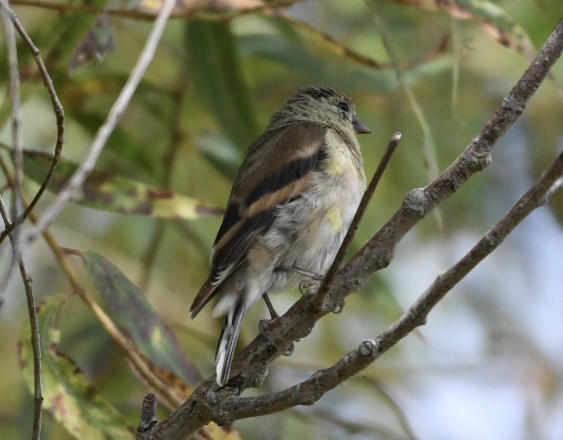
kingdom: Animalia
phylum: Chordata
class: Aves
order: Passeriformes
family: Fringillidae
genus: Spinus
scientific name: Spinus tristis
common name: American goldfinch
